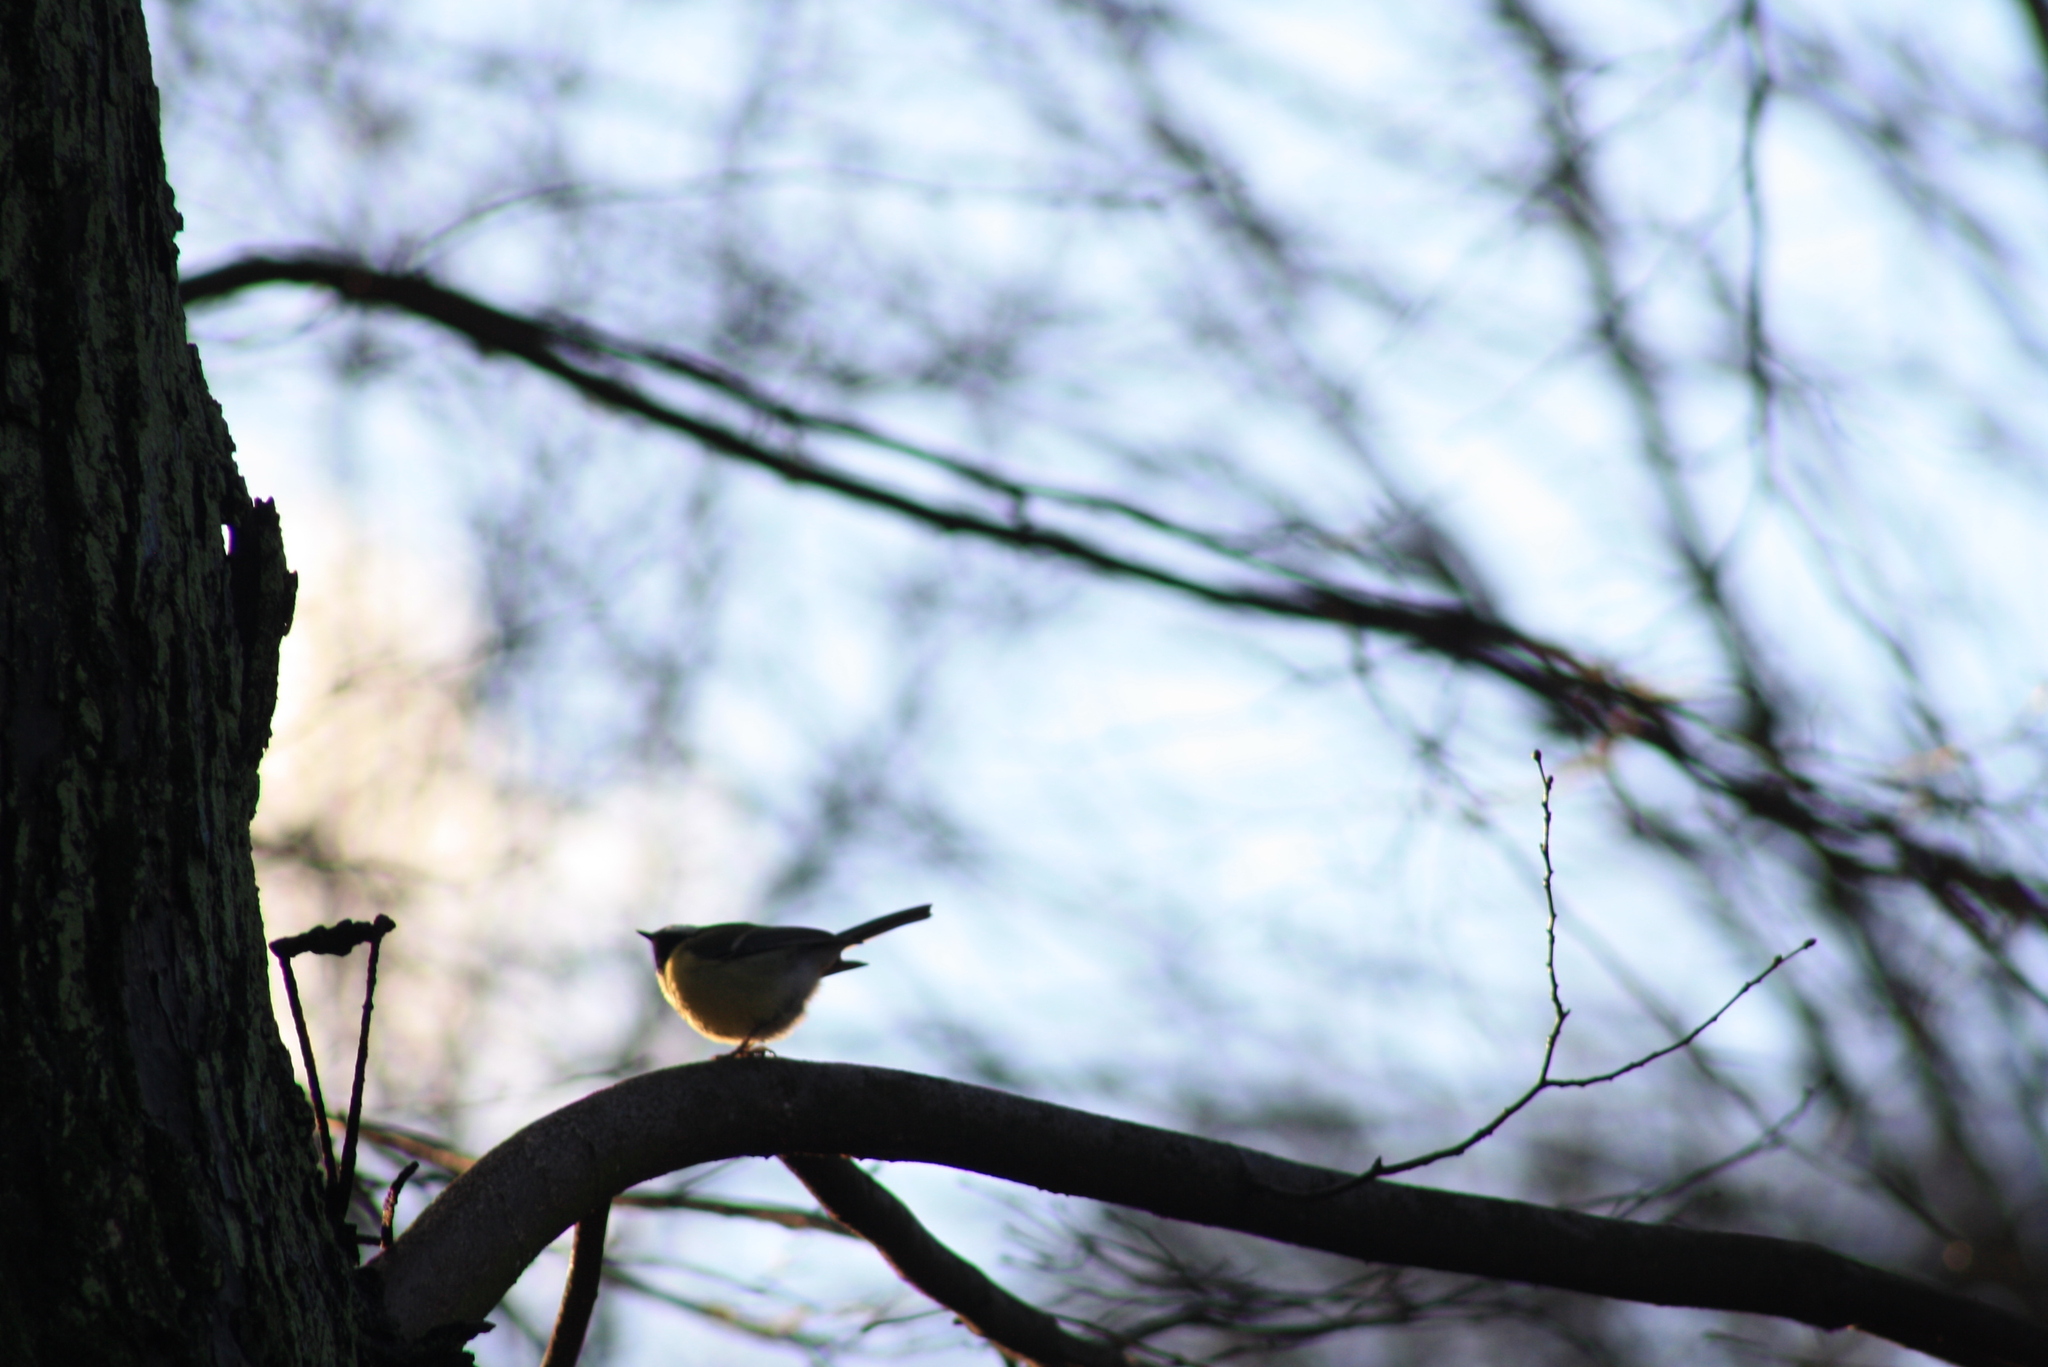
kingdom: Animalia
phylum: Chordata
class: Aves
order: Passeriformes
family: Paridae
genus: Parus
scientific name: Parus major
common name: Great tit
